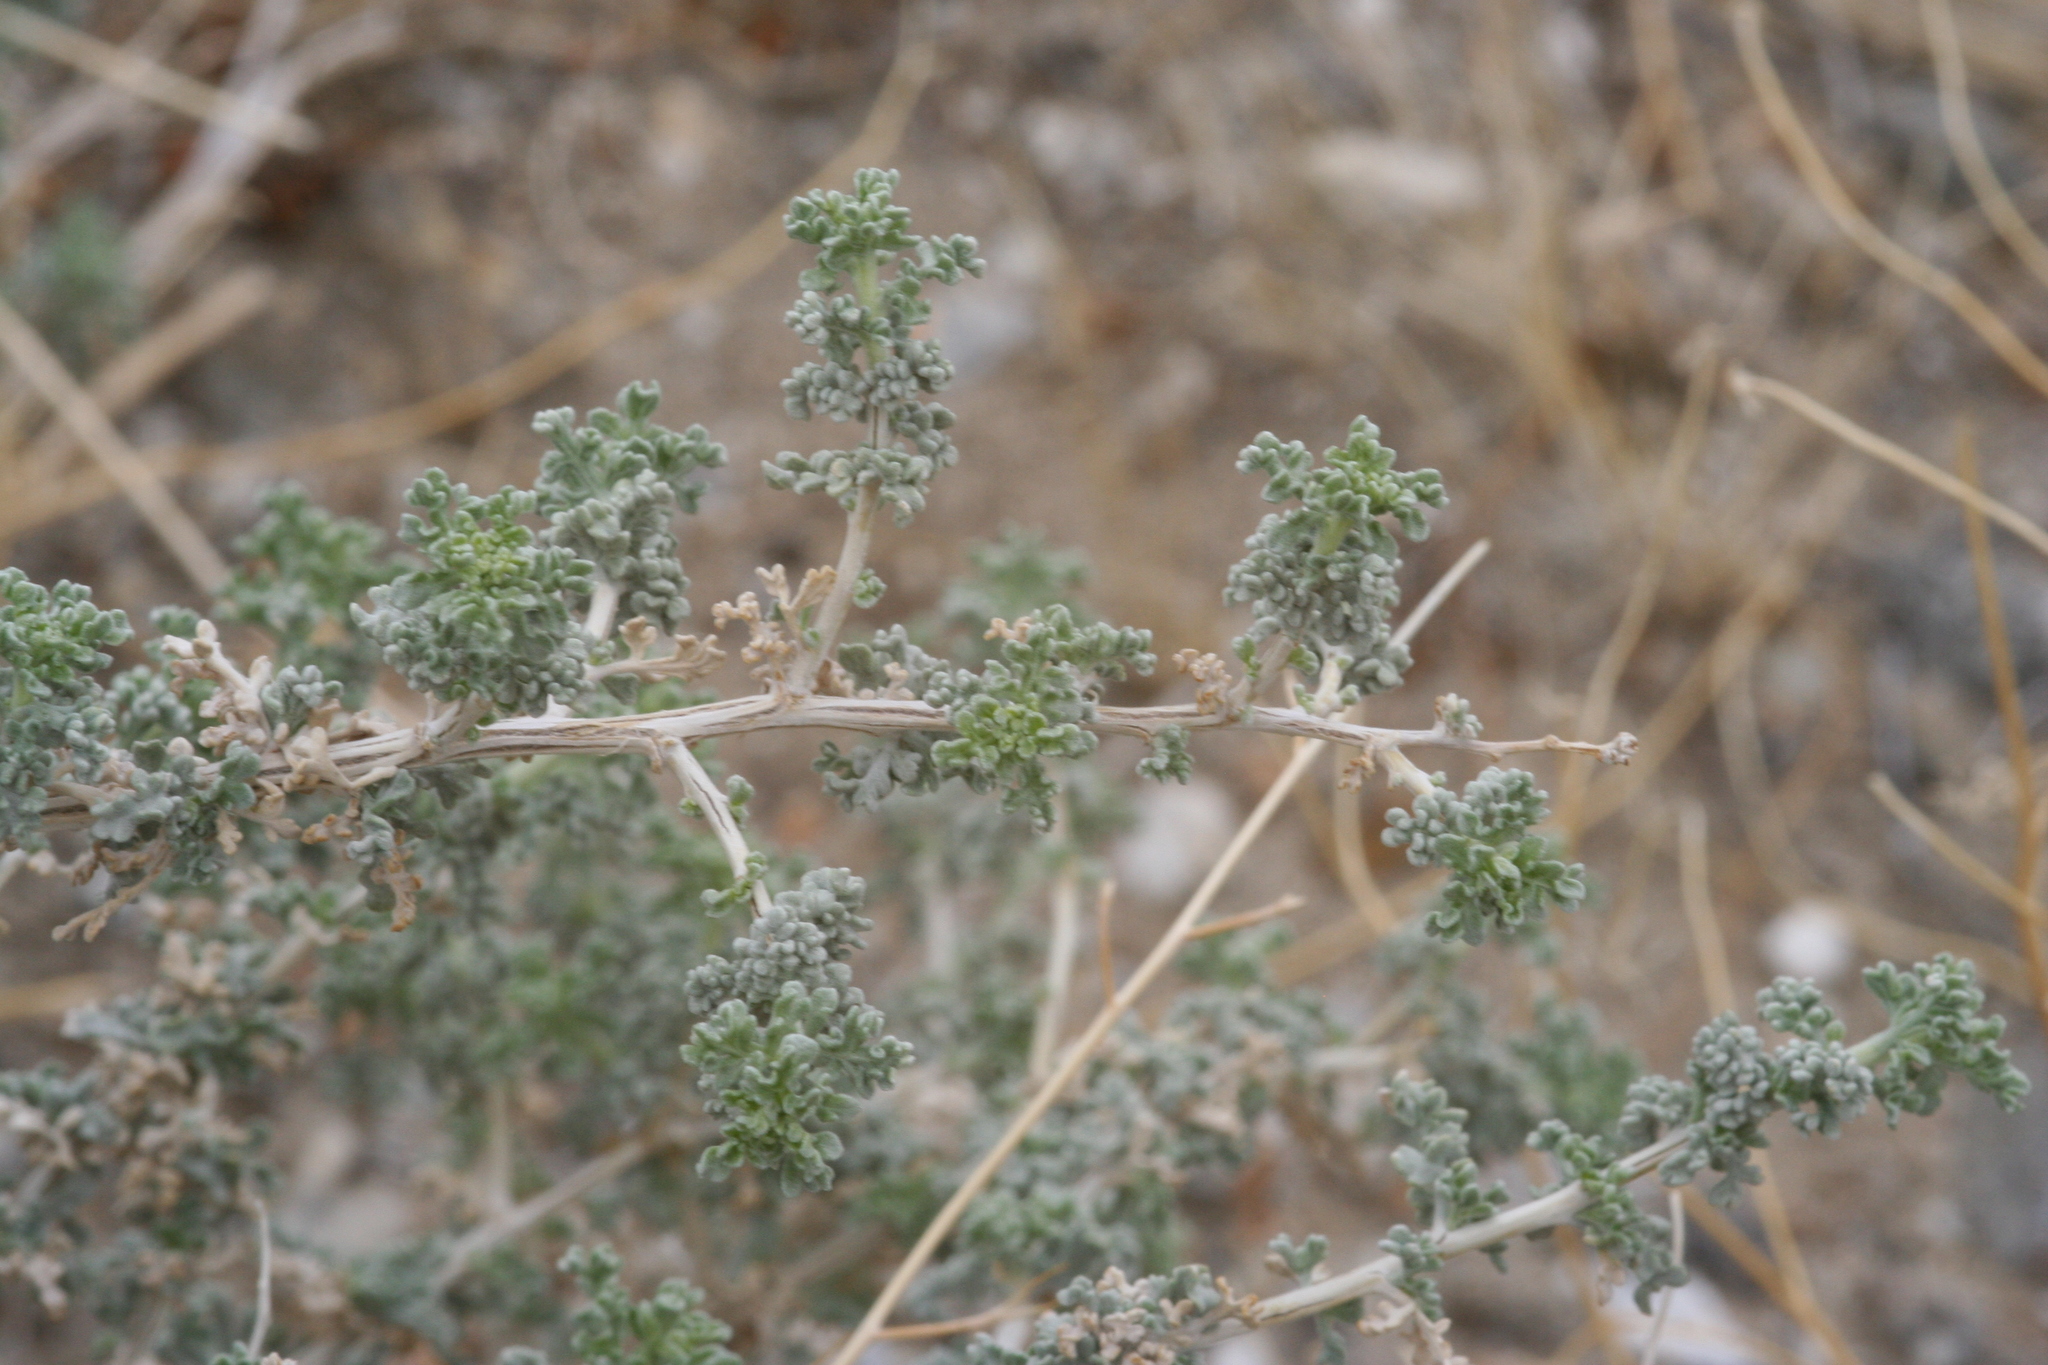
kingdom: Plantae
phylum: Tracheophyta
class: Magnoliopsida
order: Asterales
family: Asteraceae
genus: Ambrosia
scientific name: Ambrosia dumosa
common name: Bur-sage
